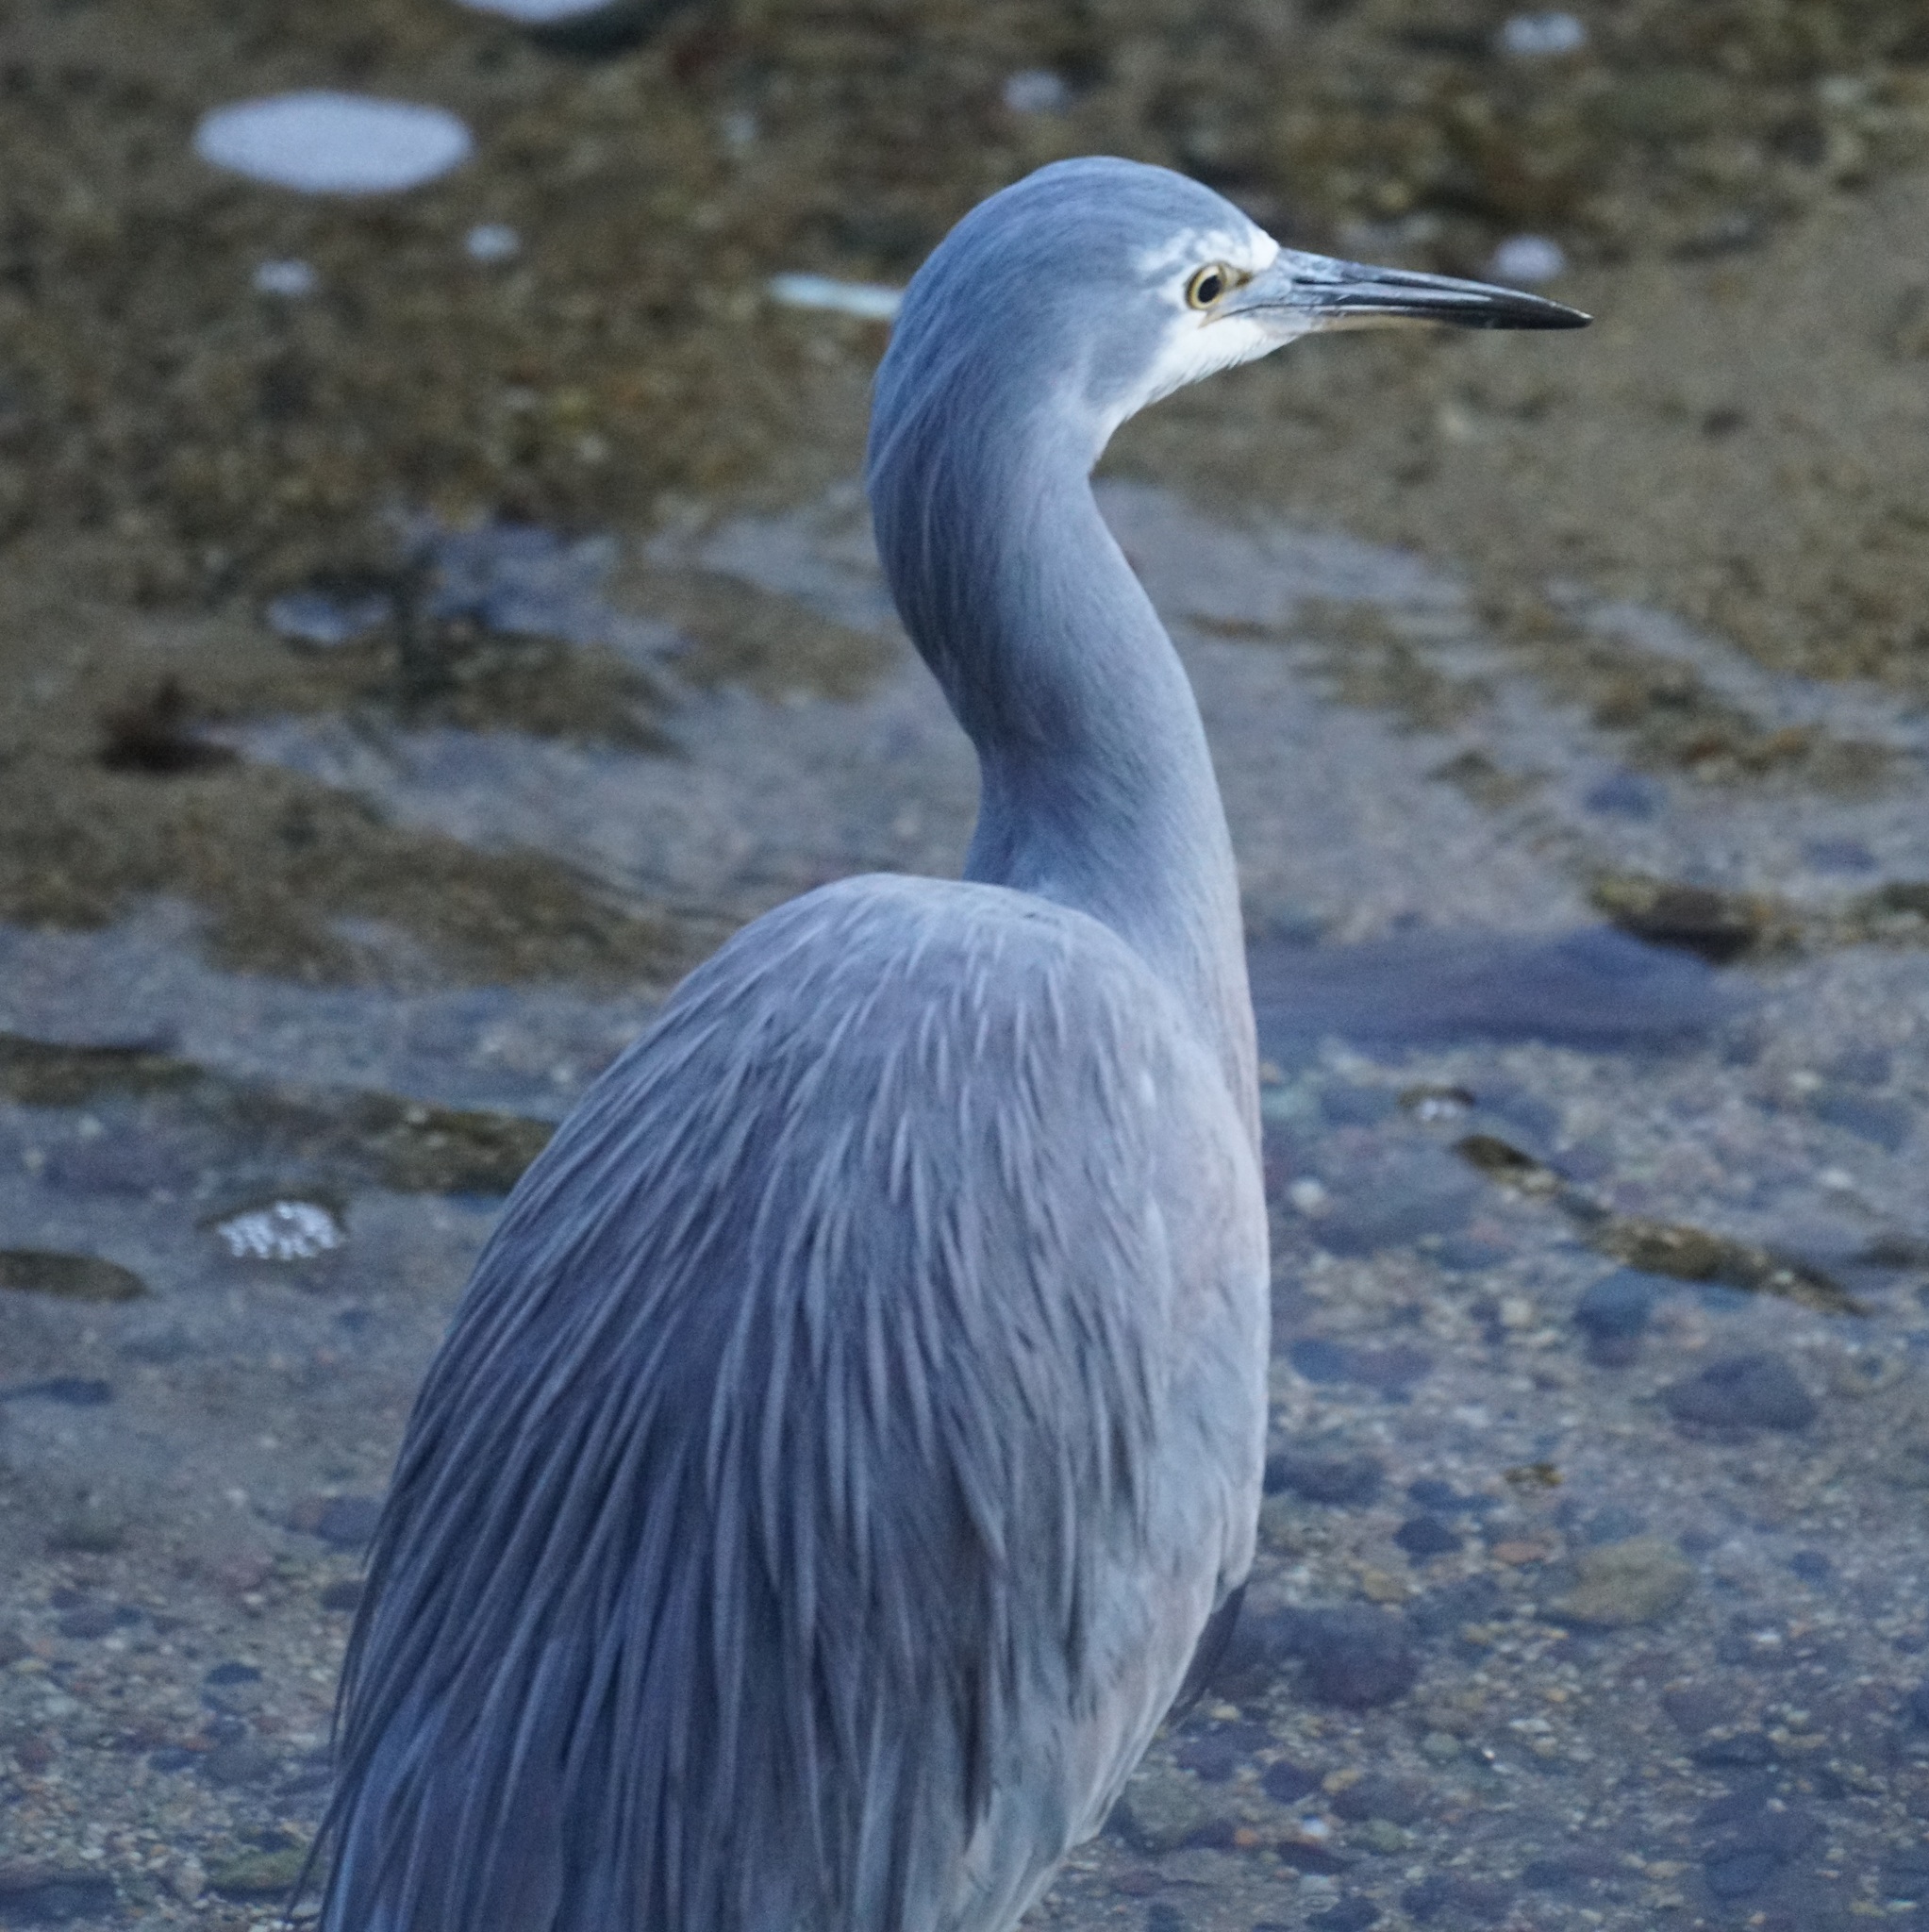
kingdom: Animalia
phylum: Chordata
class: Aves
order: Pelecaniformes
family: Ardeidae
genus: Egretta
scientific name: Egretta novaehollandiae
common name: White-faced heron
